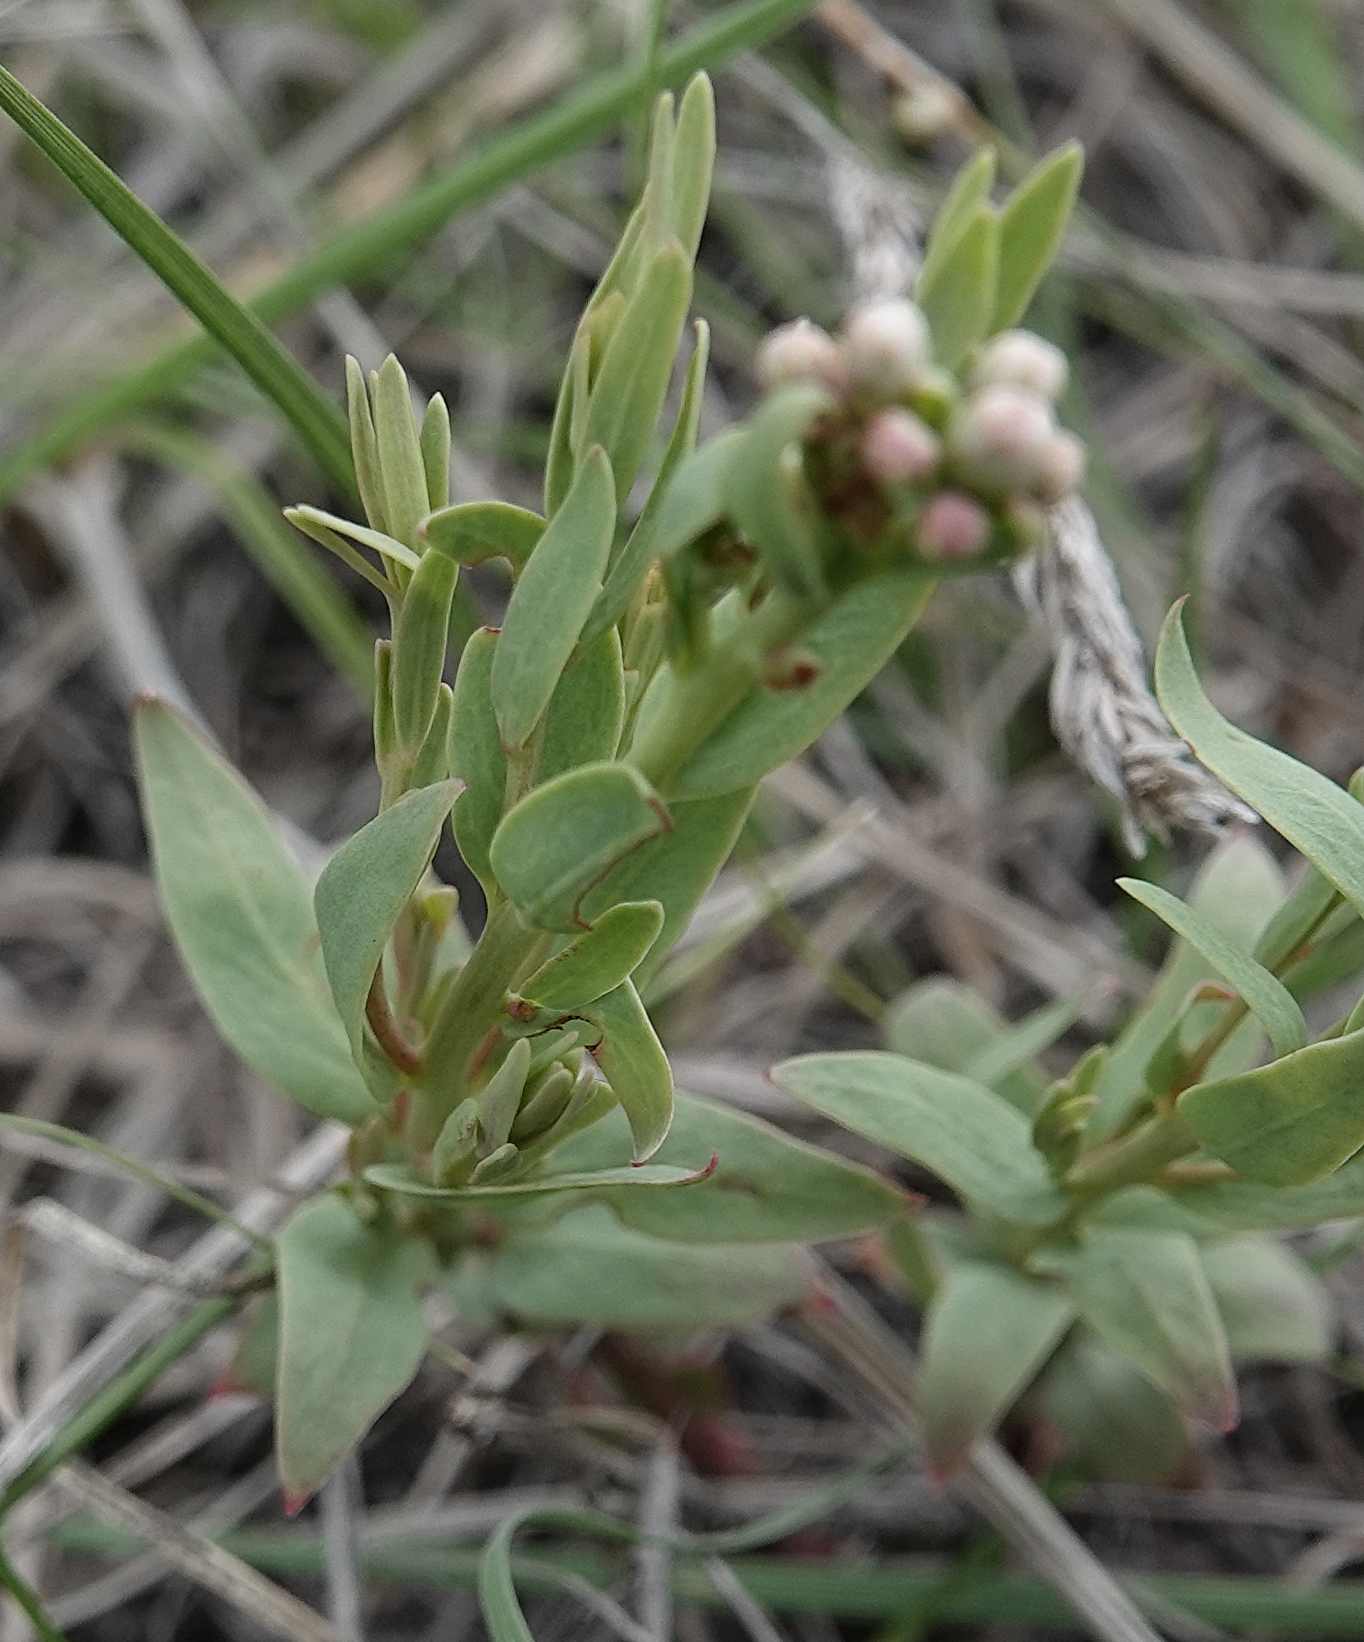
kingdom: Plantae
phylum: Tracheophyta
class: Magnoliopsida
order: Santalales
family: Comandraceae
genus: Comandra
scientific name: Comandra umbellata
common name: Bastard toadflax
